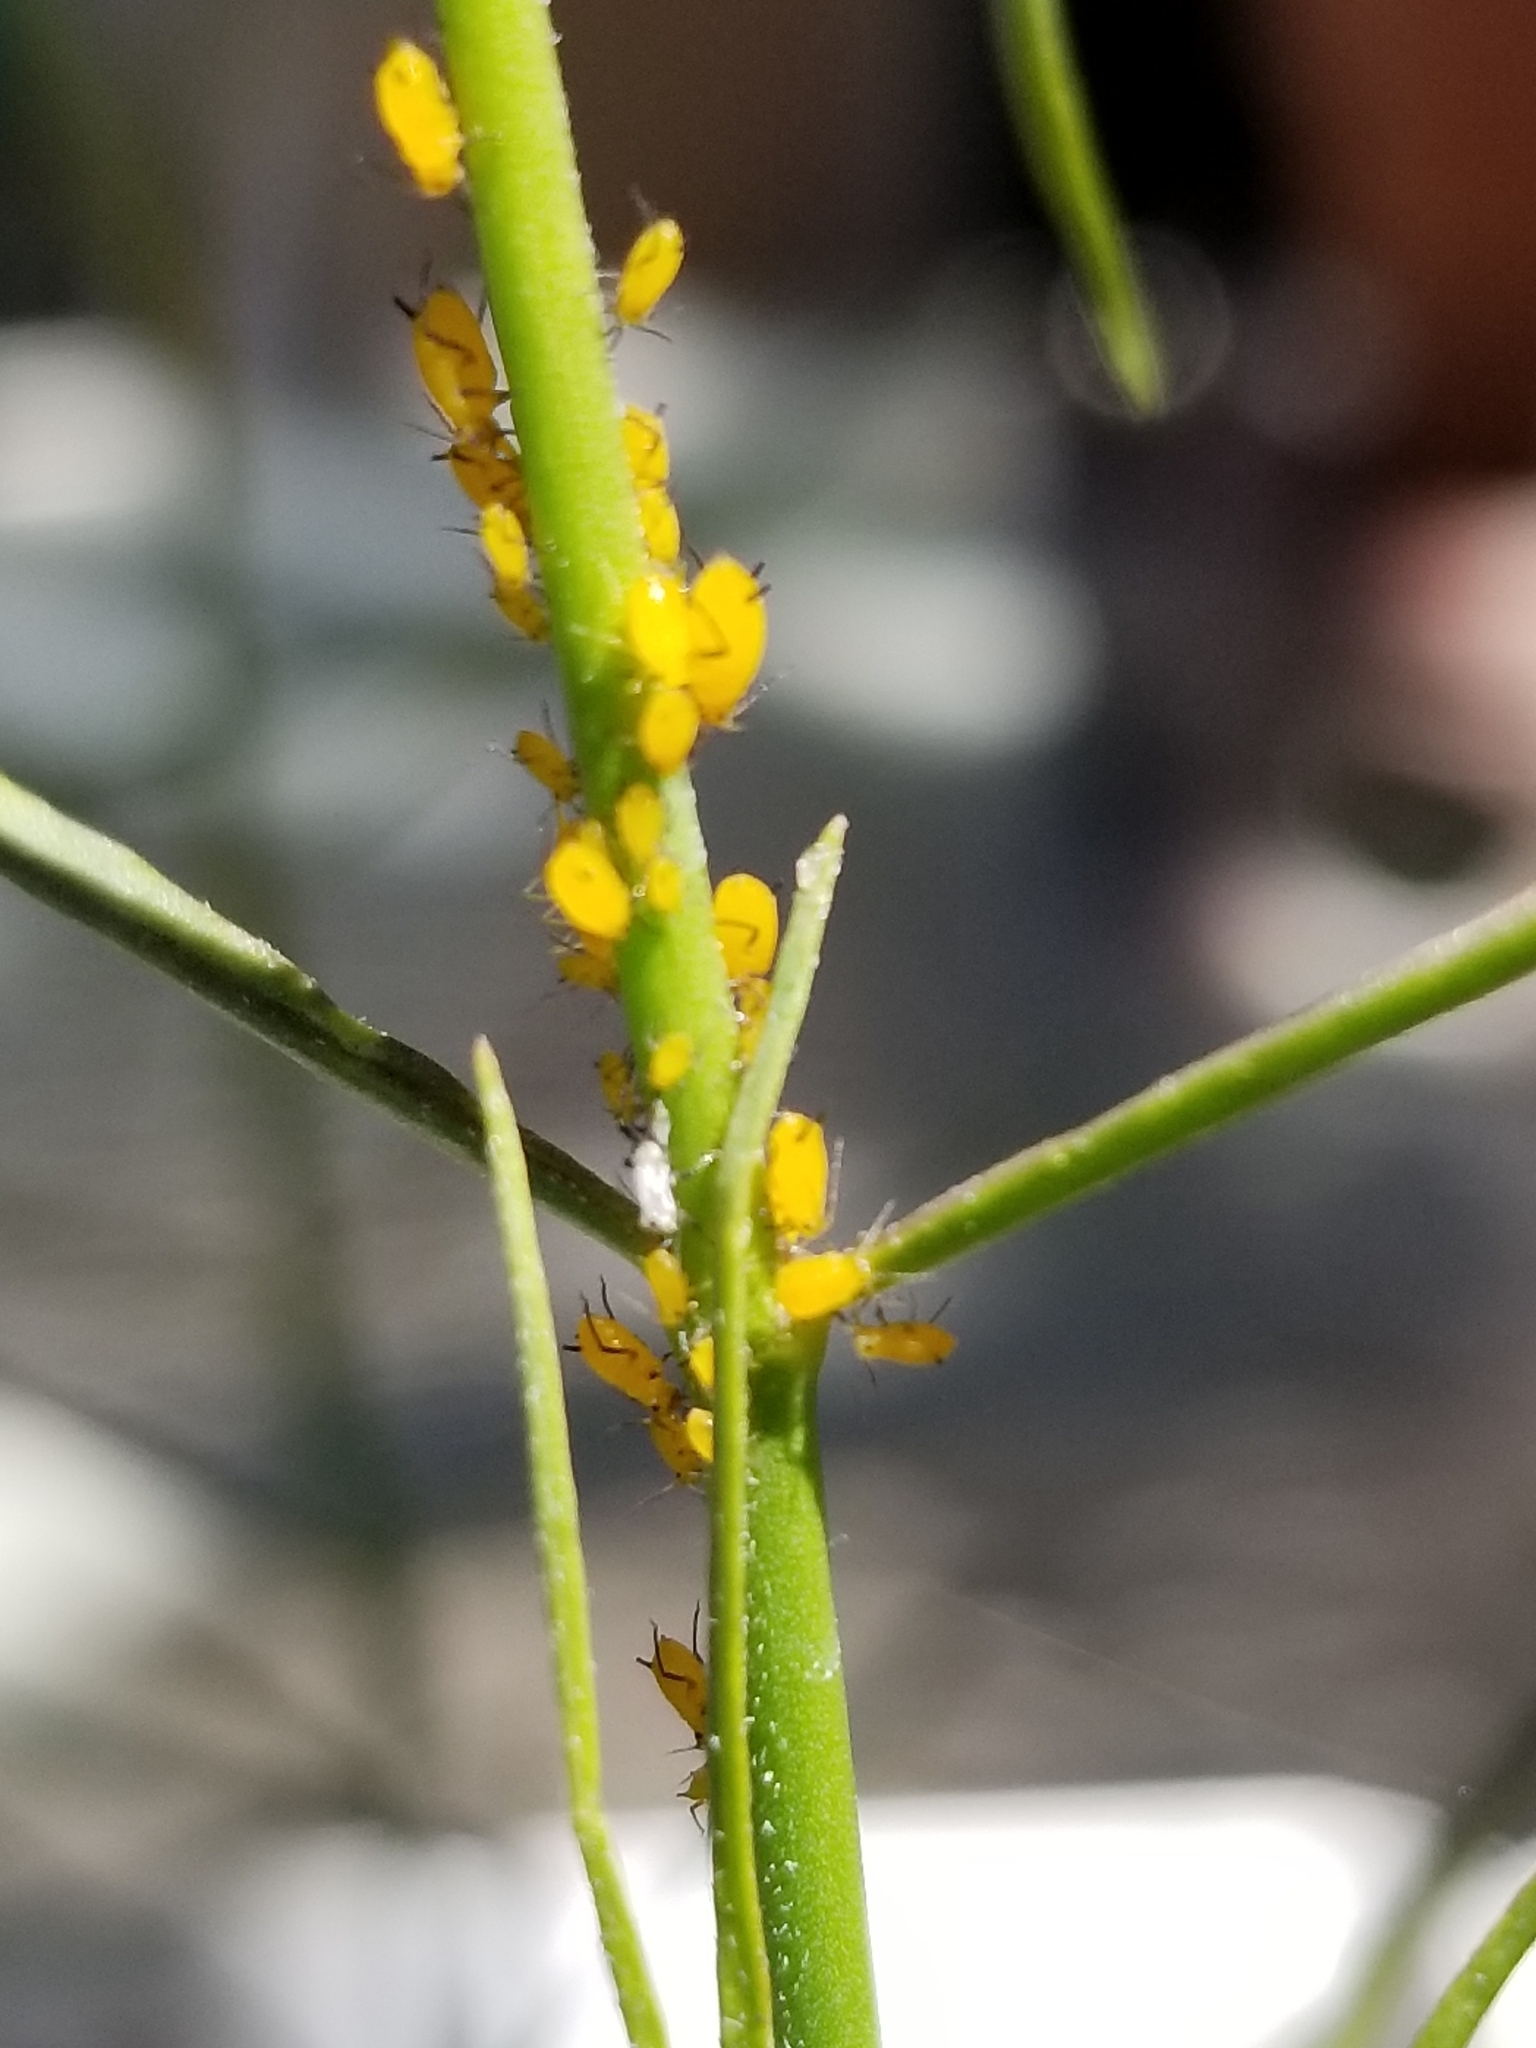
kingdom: Animalia
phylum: Arthropoda
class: Insecta
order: Hemiptera
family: Aphididae
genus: Aphis
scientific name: Aphis nerii
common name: Oleander aphid
